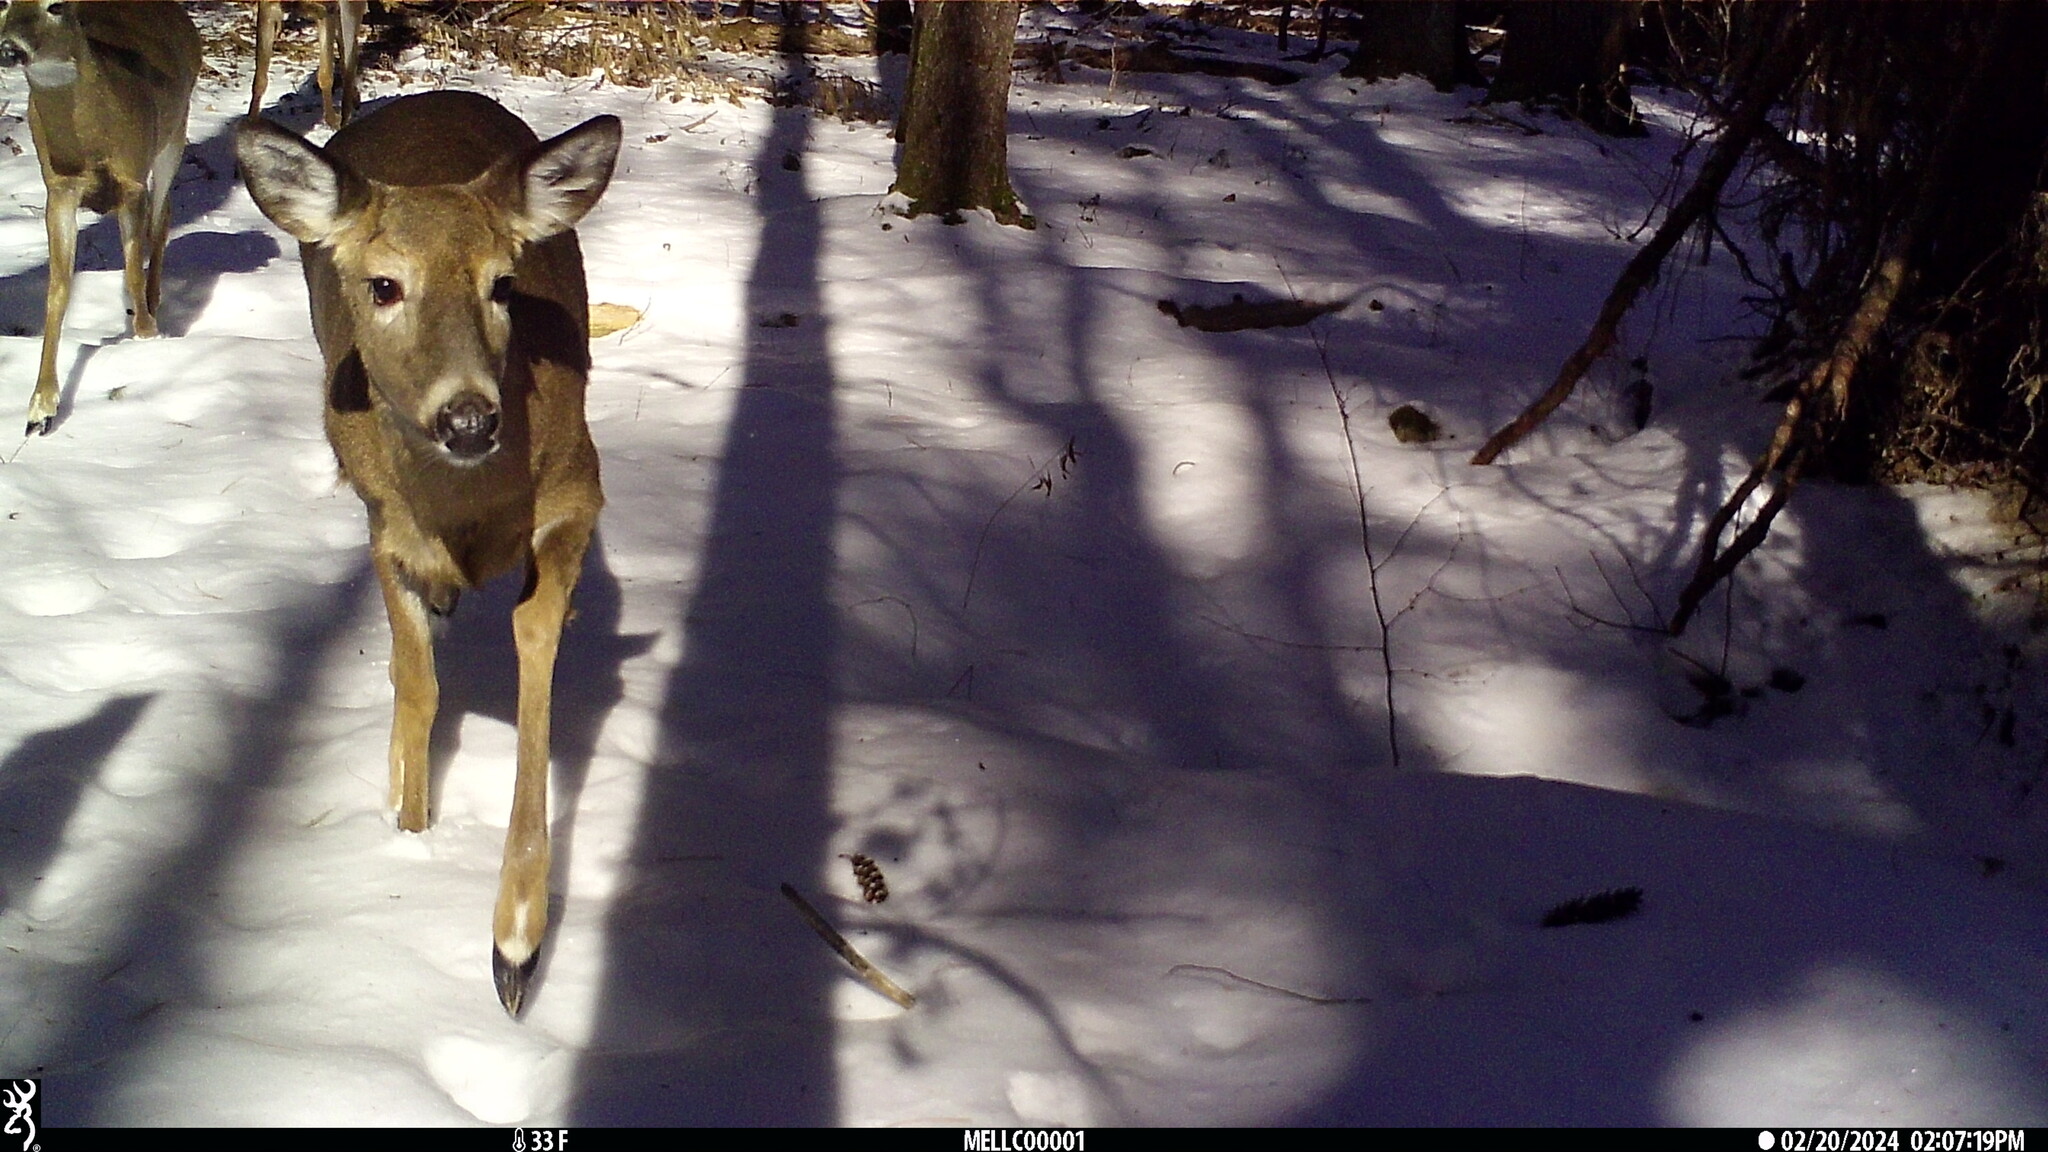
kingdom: Animalia
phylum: Chordata
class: Mammalia
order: Artiodactyla
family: Cervidae
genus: Odocoileus
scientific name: Odocoileus virginianus
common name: White-tailed deer
